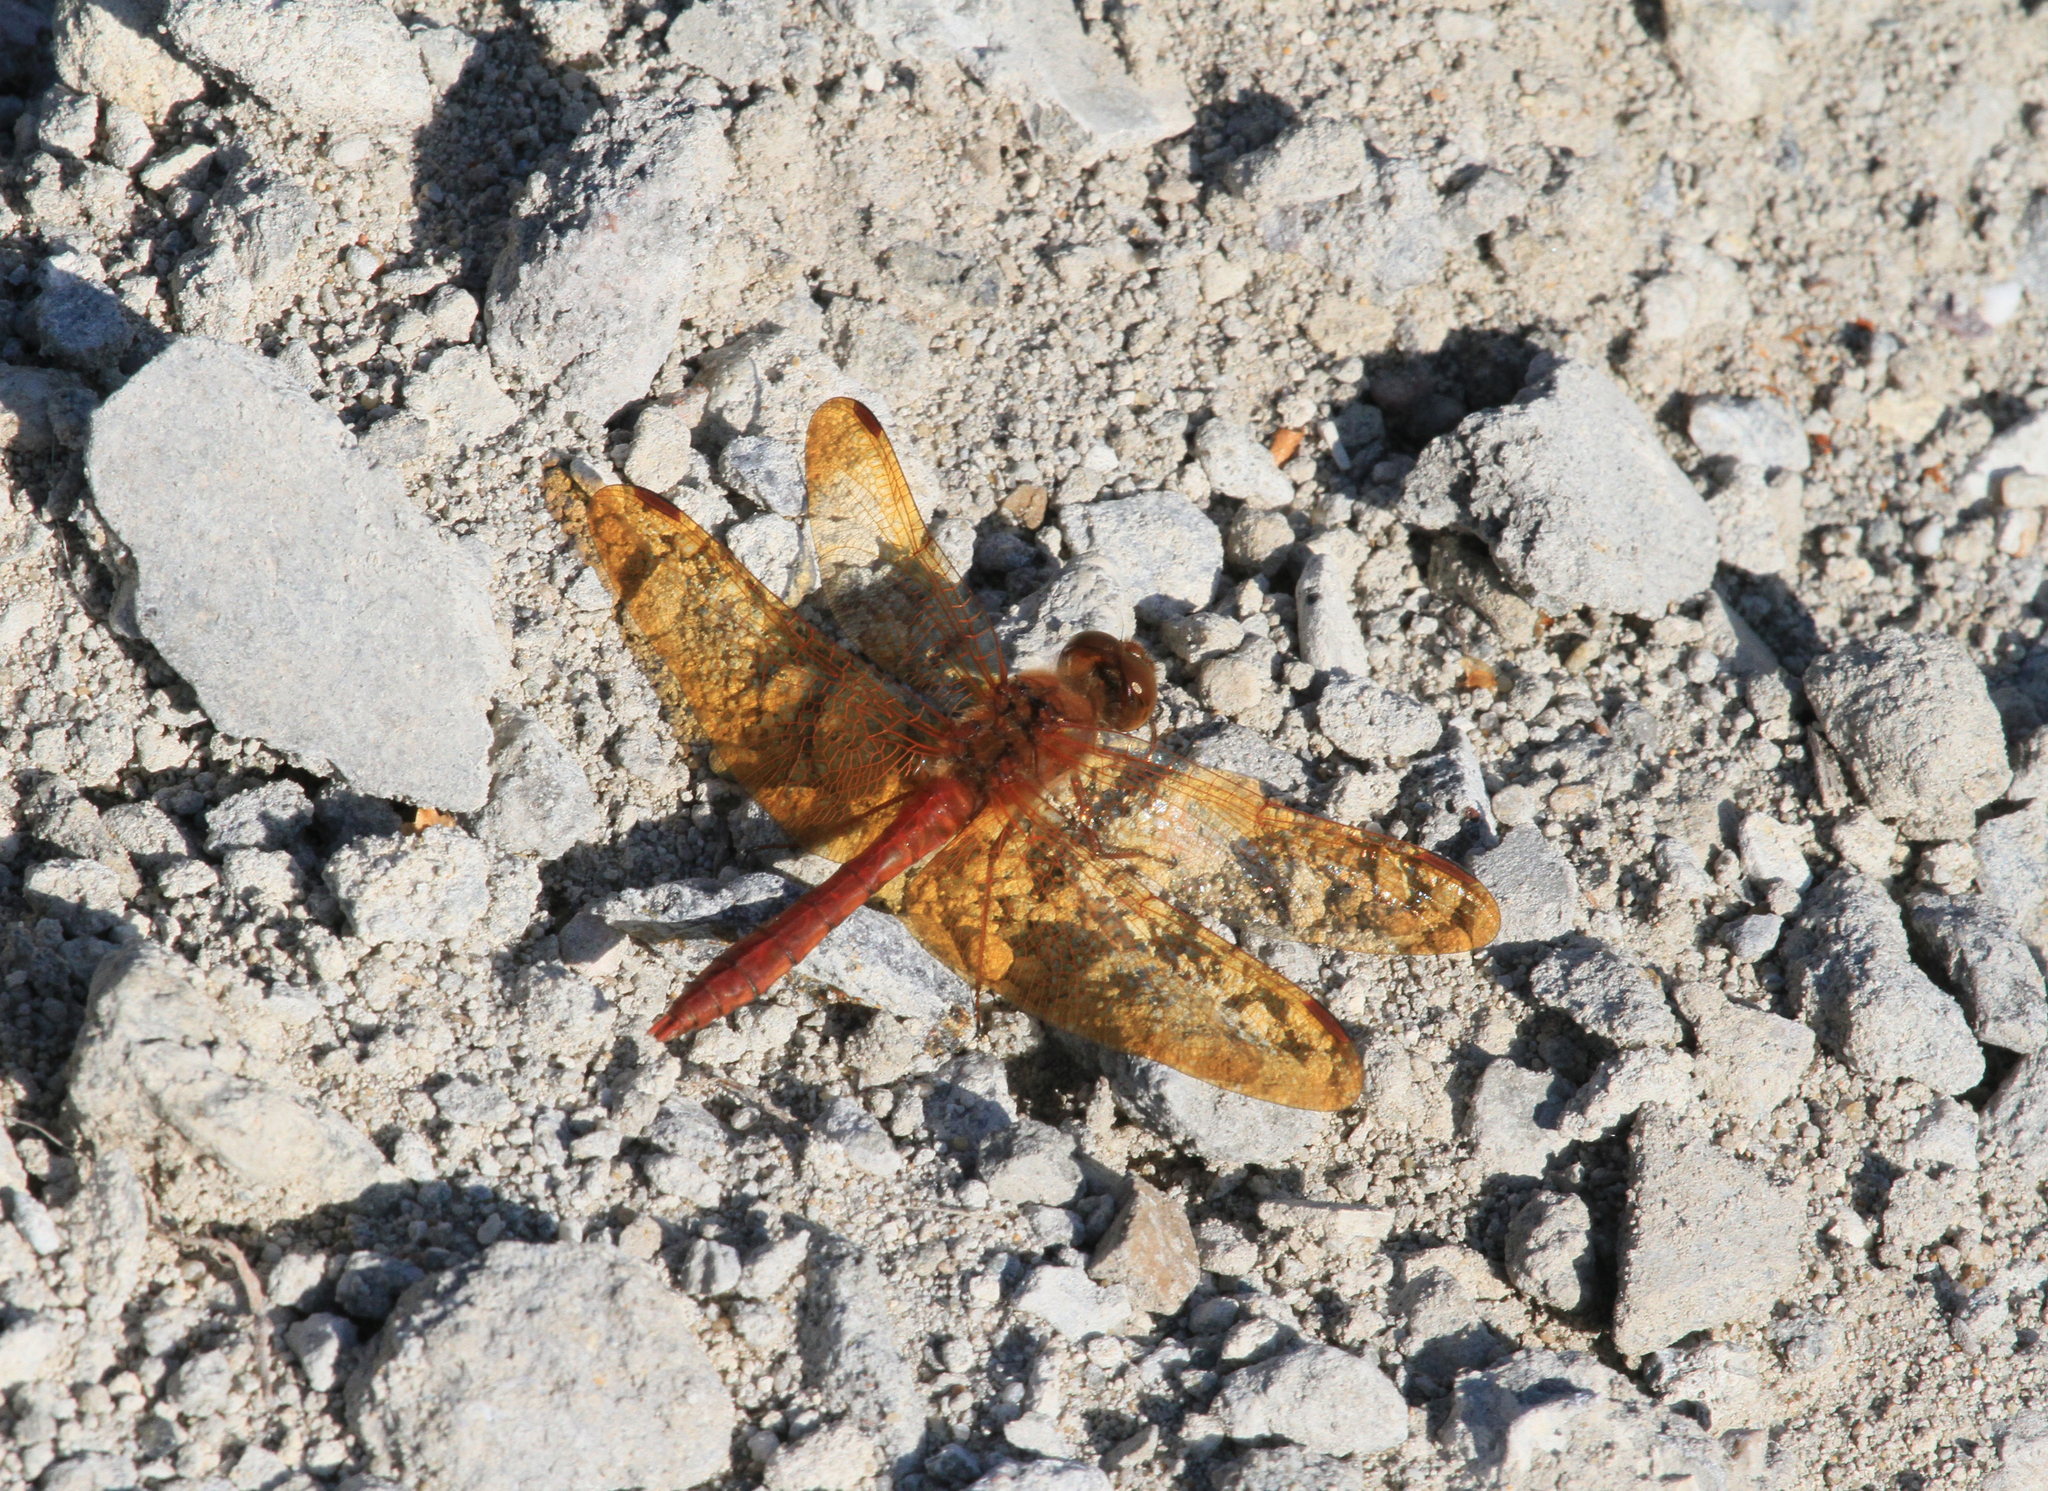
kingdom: Animalia
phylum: Arthropoda
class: Insecta
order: Odonata
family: Libellulidae
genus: Sympetrum
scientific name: Sympetrum croceolum
